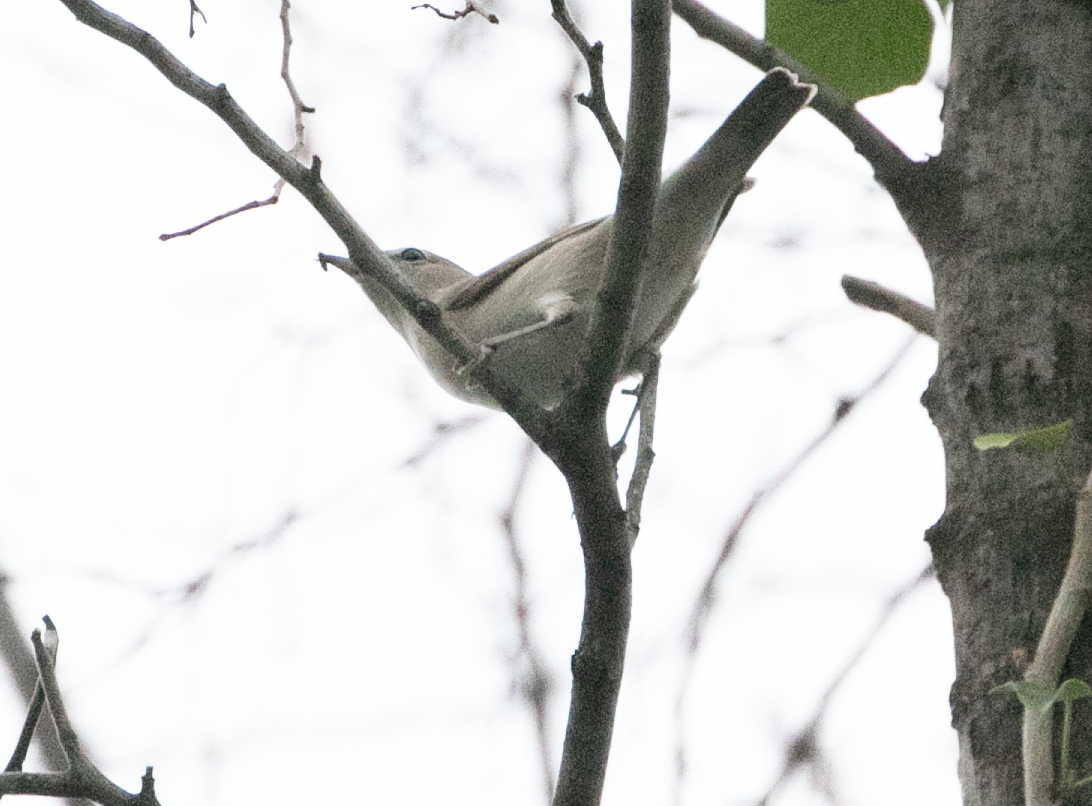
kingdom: Animalia
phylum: Chordata
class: Aves
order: Passeriformes
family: Sylviidae
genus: Sylvia
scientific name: Sylvia borin
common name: Garden warbler
